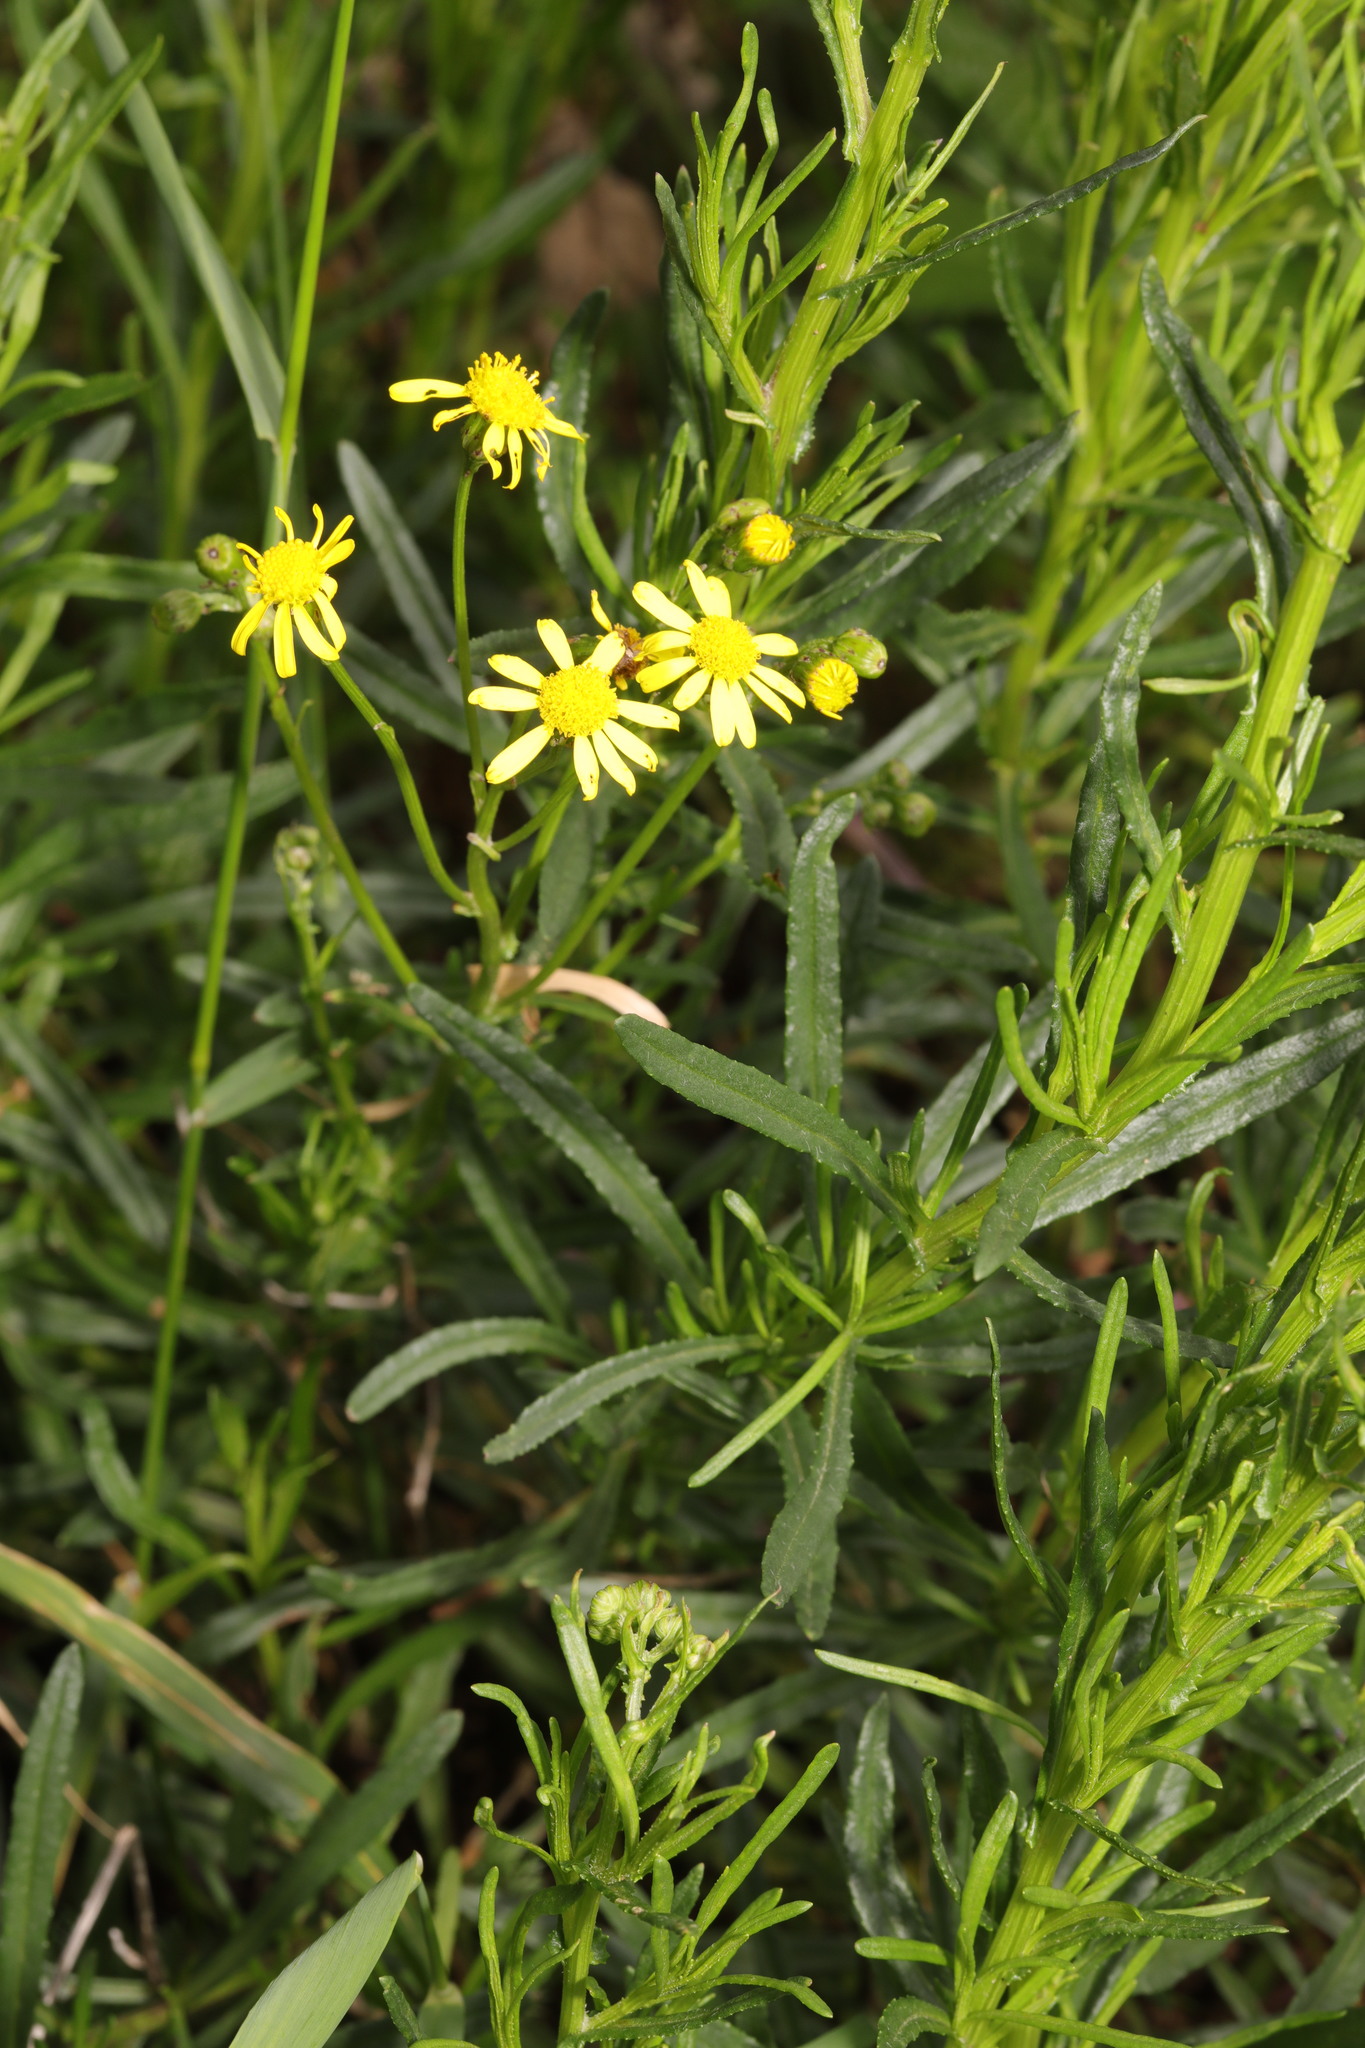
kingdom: Plantae
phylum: Tracheophyta
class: Magnoliopsida
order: Asterales
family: Asteraceae
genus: Senecio
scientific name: Senecio inaequidens
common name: Narrow-leaved ragwort
